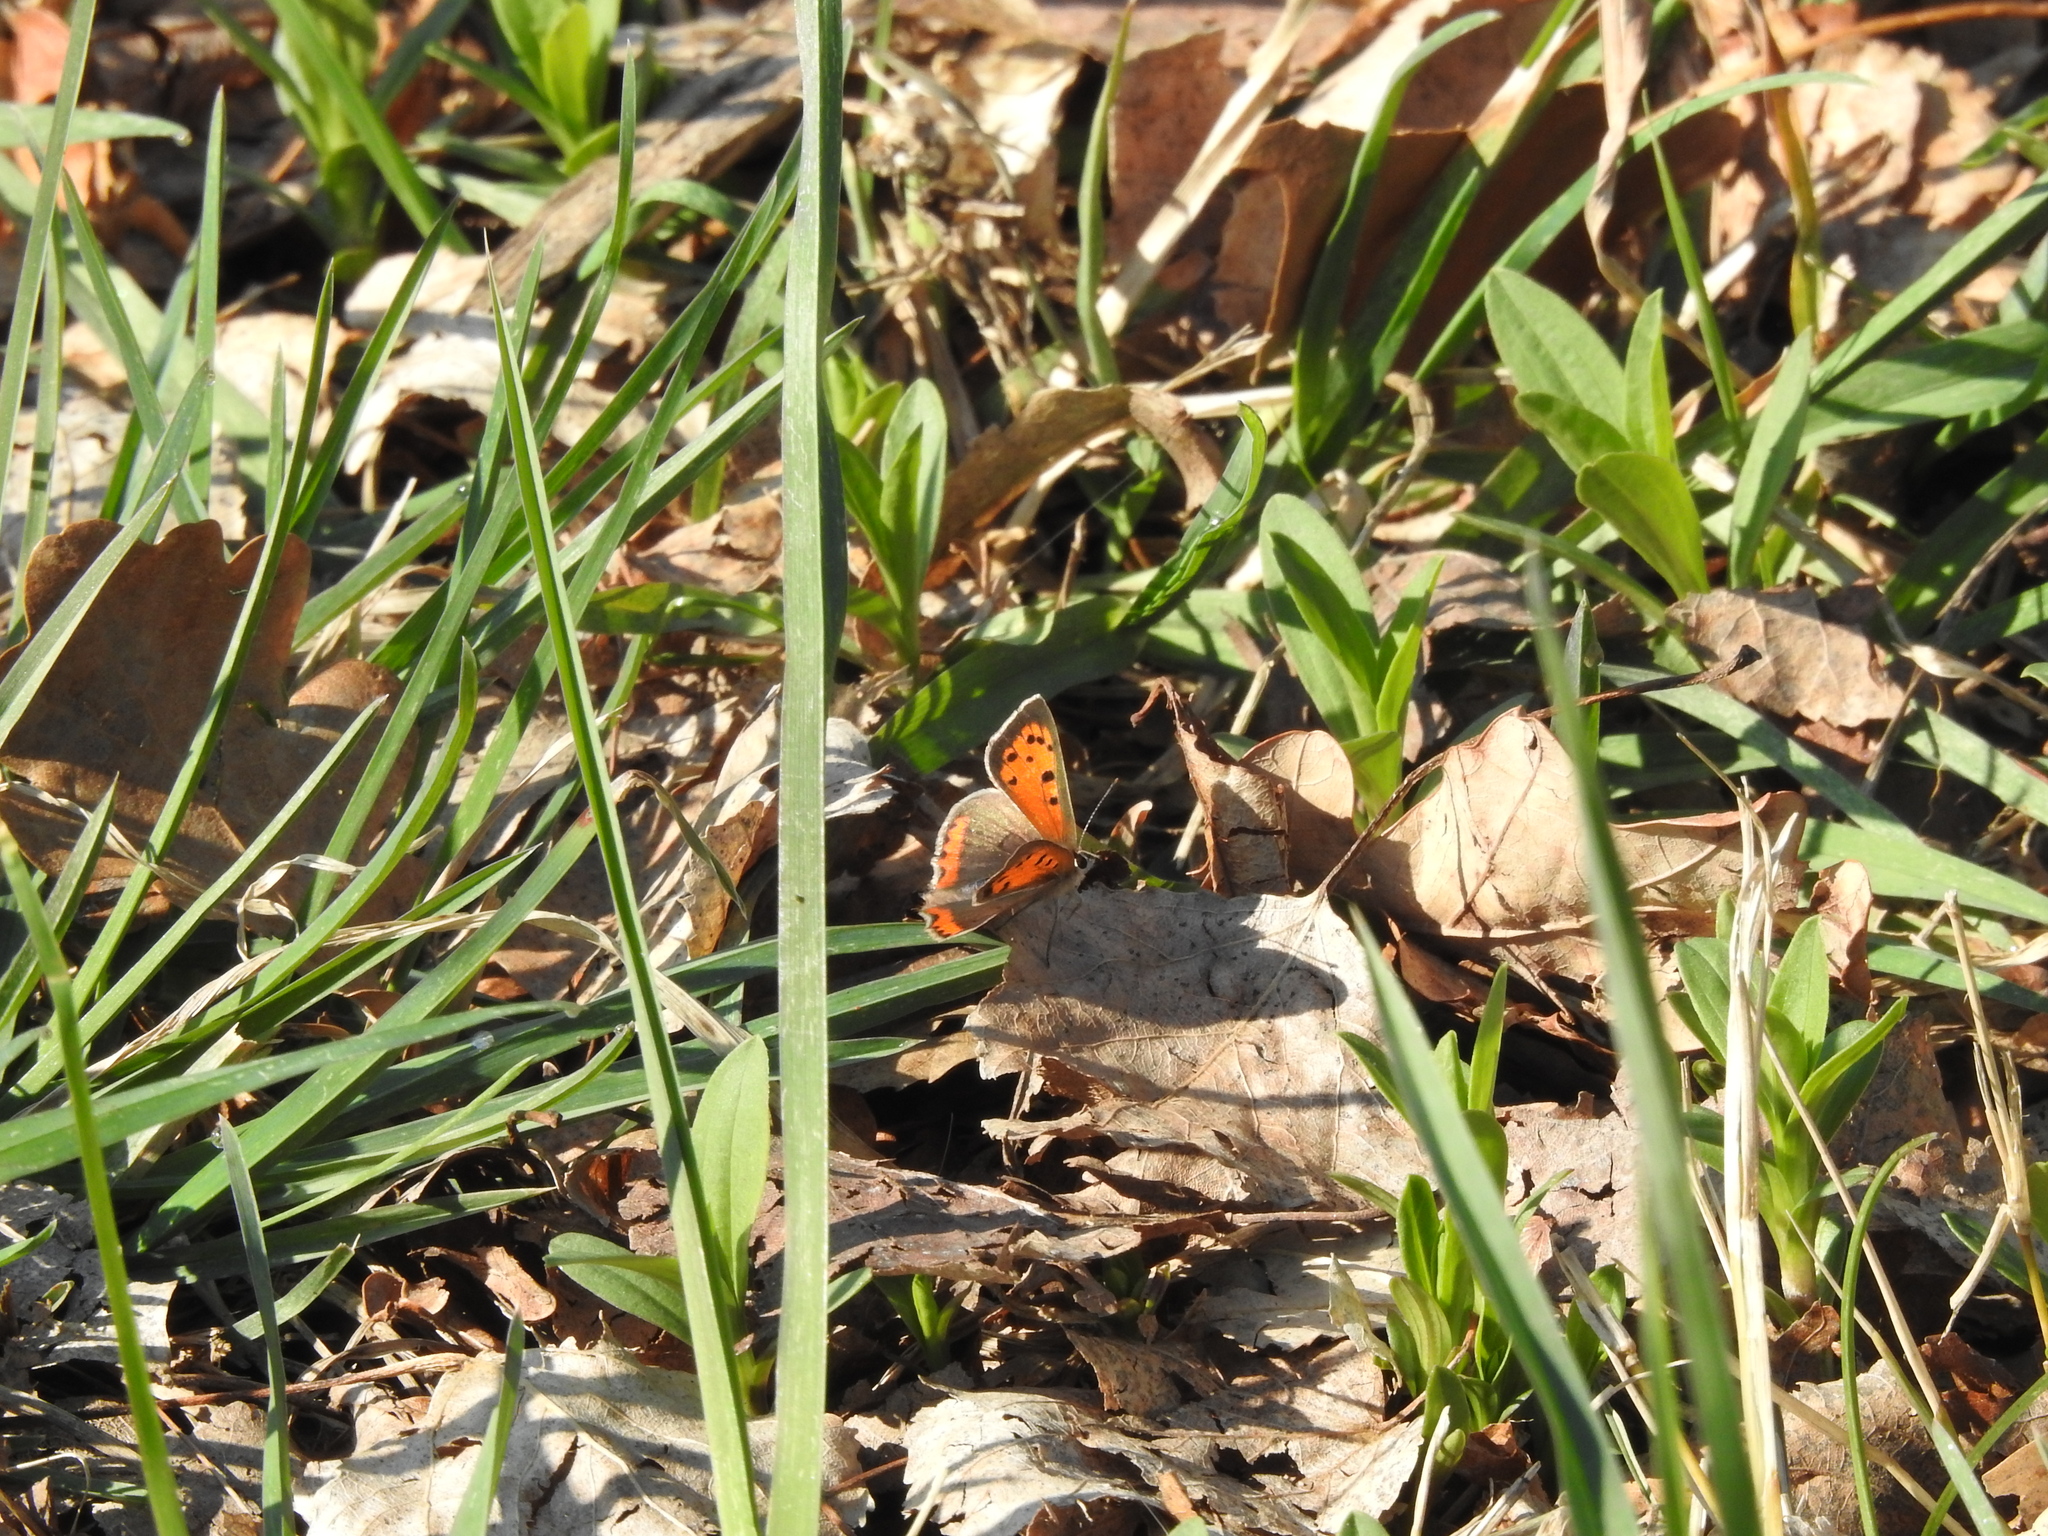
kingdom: Animalia
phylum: Arthropoda
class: Insecta
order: Lepidoptera
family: Lycaenidae
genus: Lycaena
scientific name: Lycaena phlaeas
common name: Small copper
